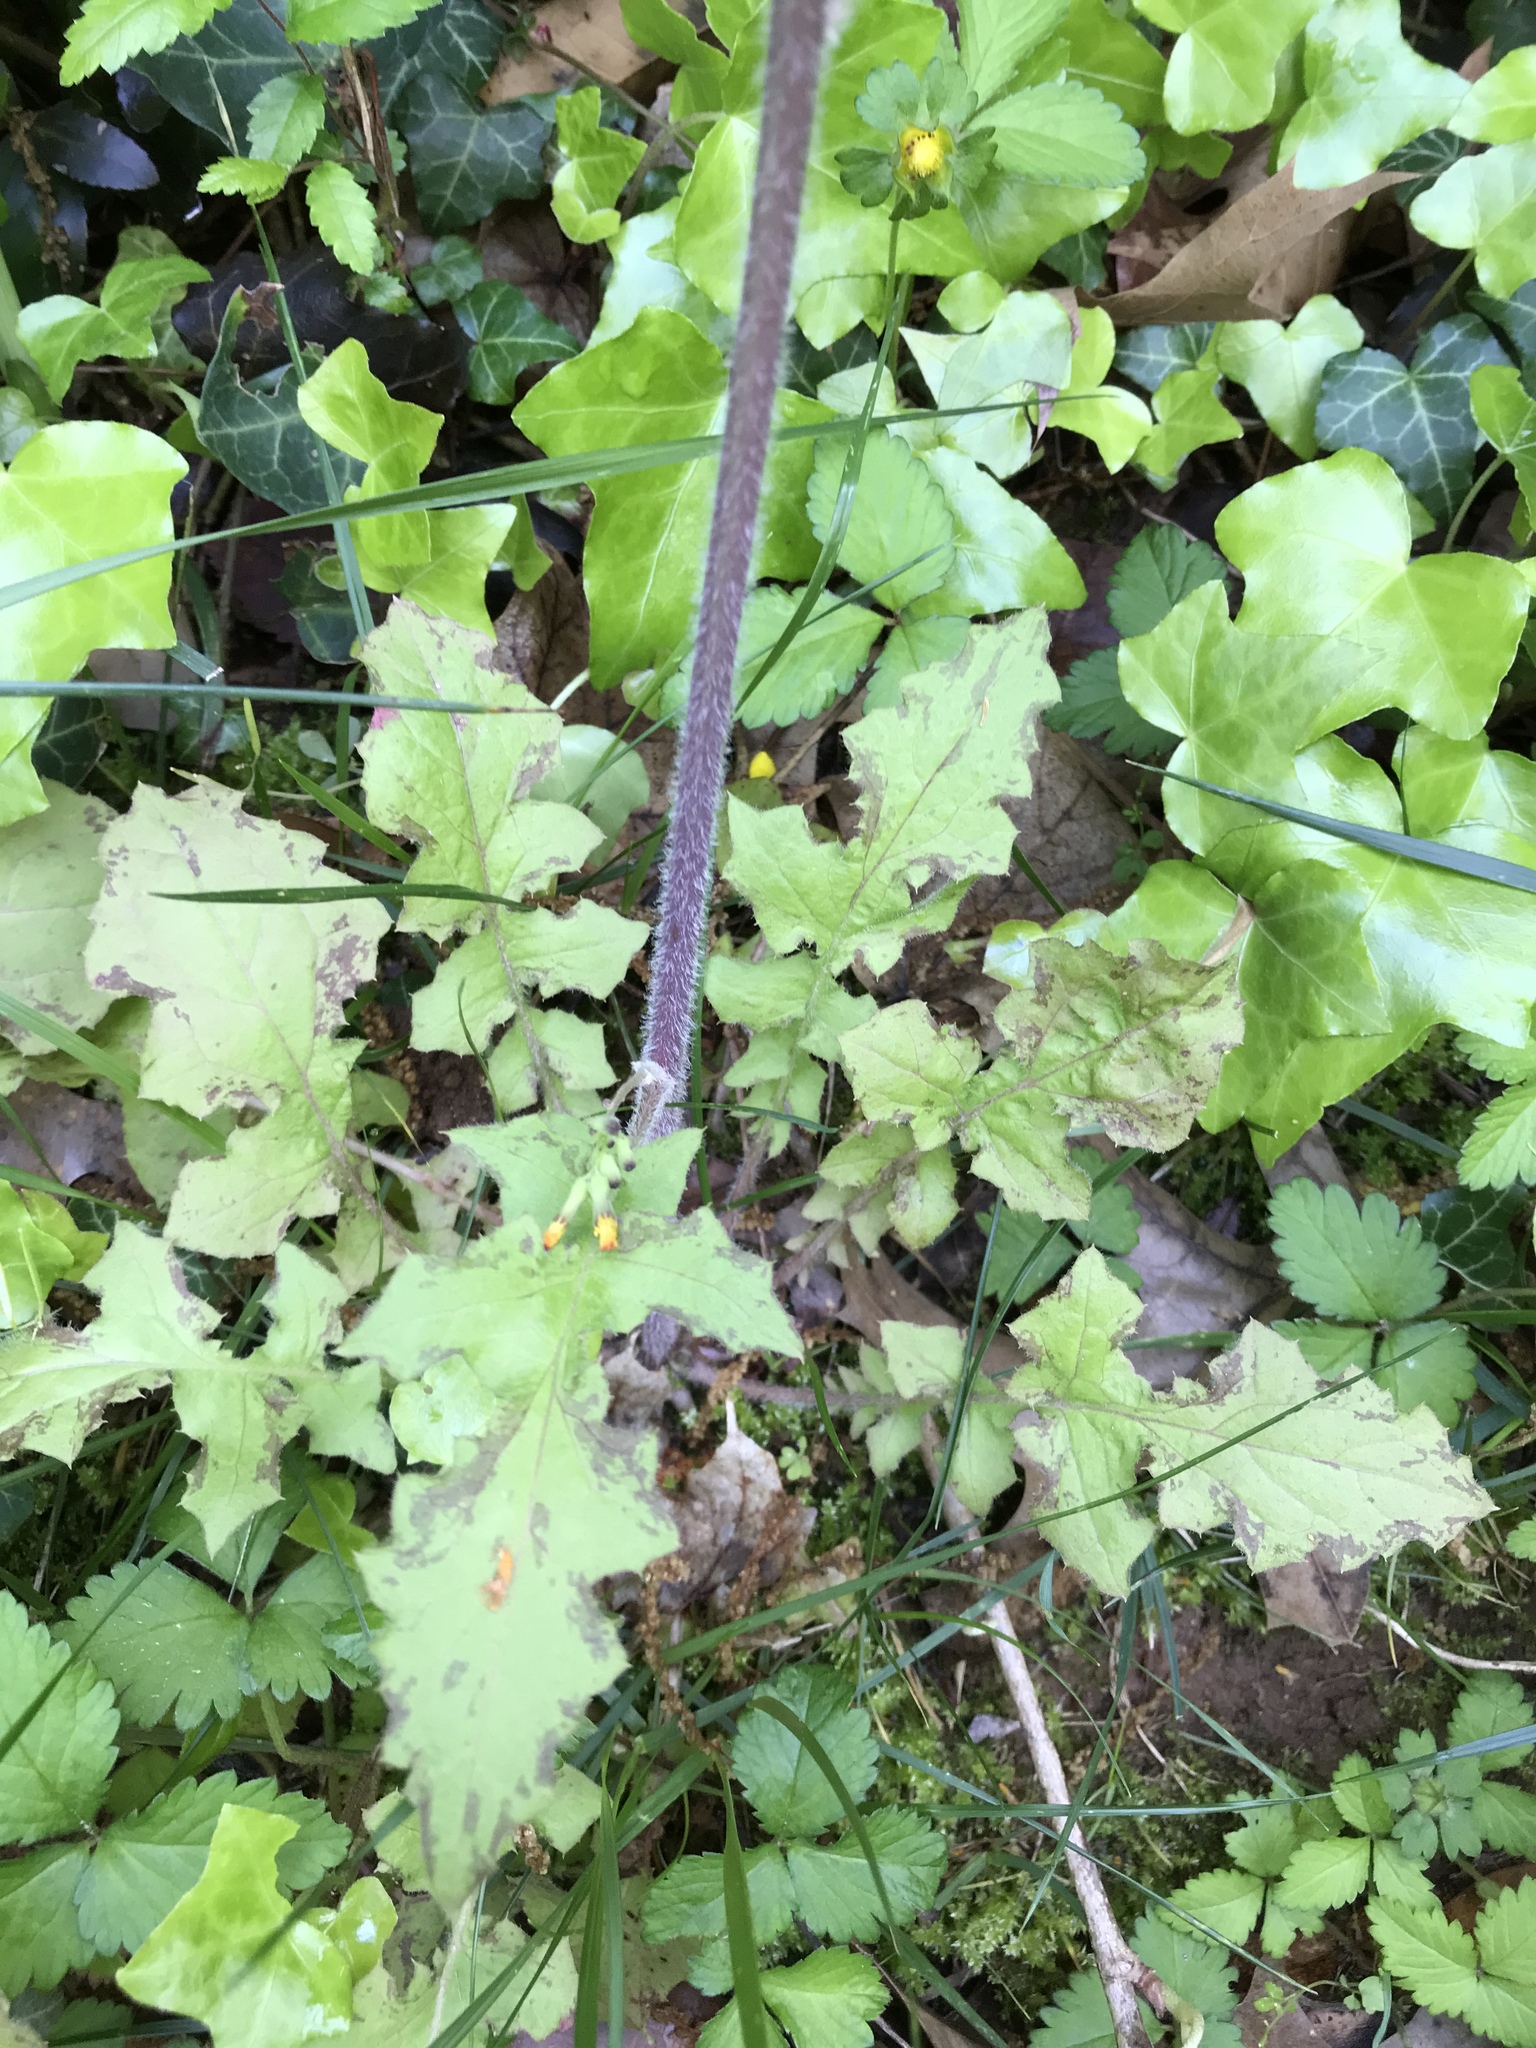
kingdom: Plantae
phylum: Tracheophyta
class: Magnoliopsida
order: Asterales
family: Asteraceae
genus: Youngia
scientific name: Youngia japonica
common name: Oriental false hawksbeard
